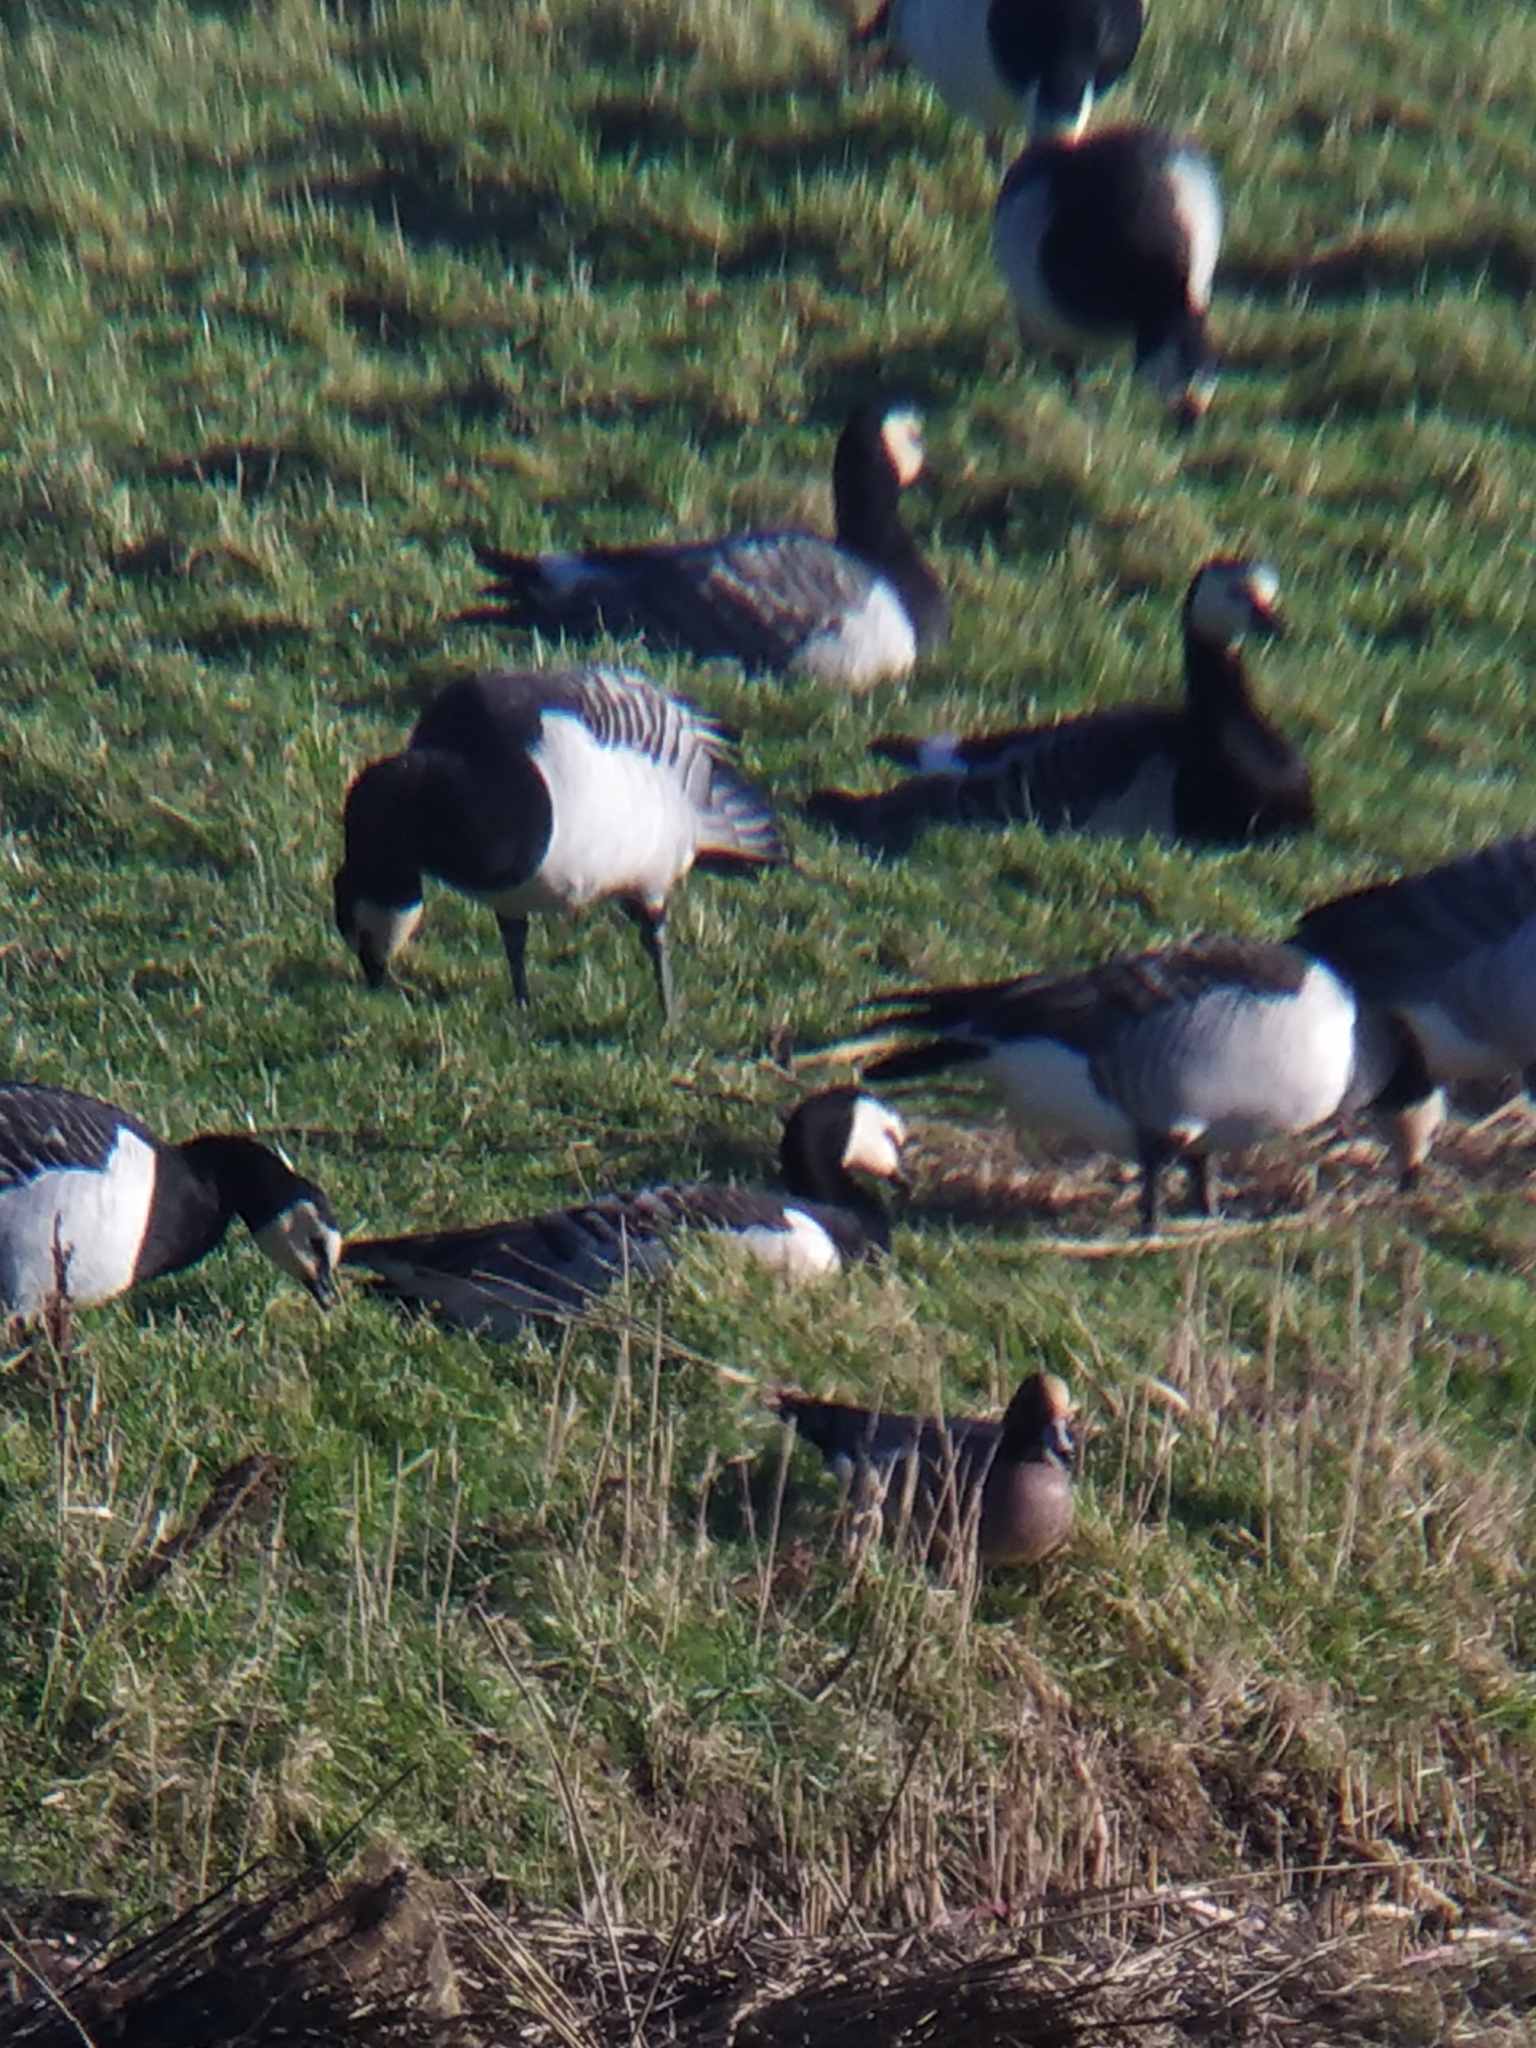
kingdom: Animalia
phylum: Chordata
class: Aves
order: Anseriformes
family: Anatidae
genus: Branta
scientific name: Branta leucopsis
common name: Barnacle goose
